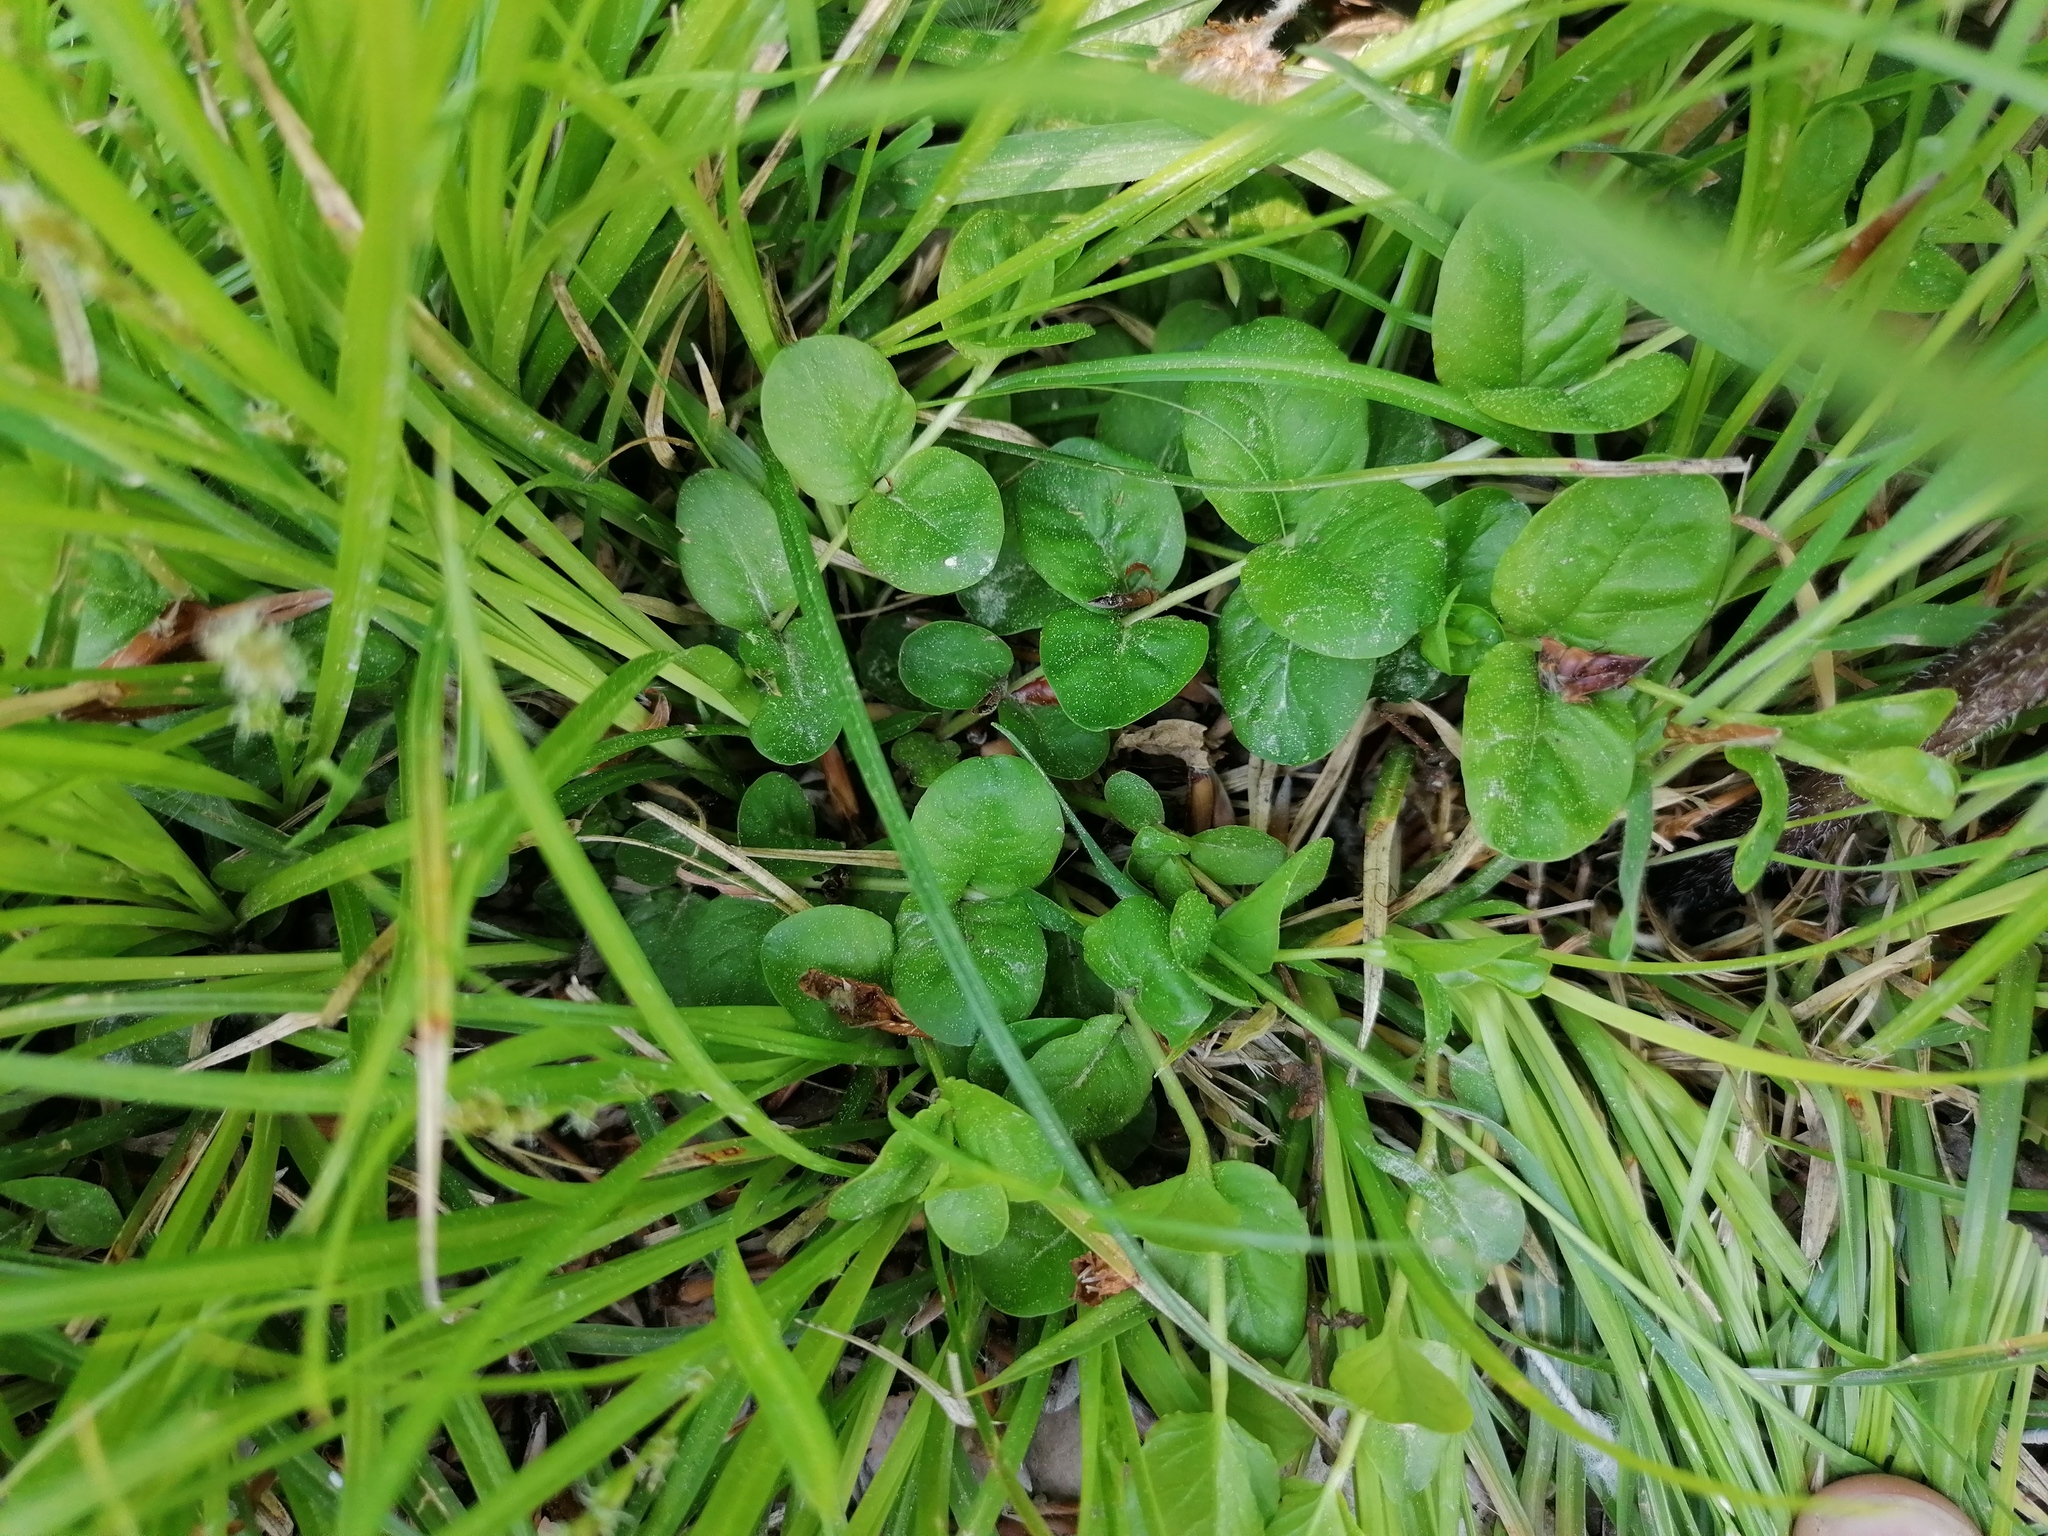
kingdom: Plantae
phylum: Tracheophyta
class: Magnoliopsida
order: Ericales
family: Primulaceae
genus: Lysimachia
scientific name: Lysimachia nummularia
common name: Moneywort
